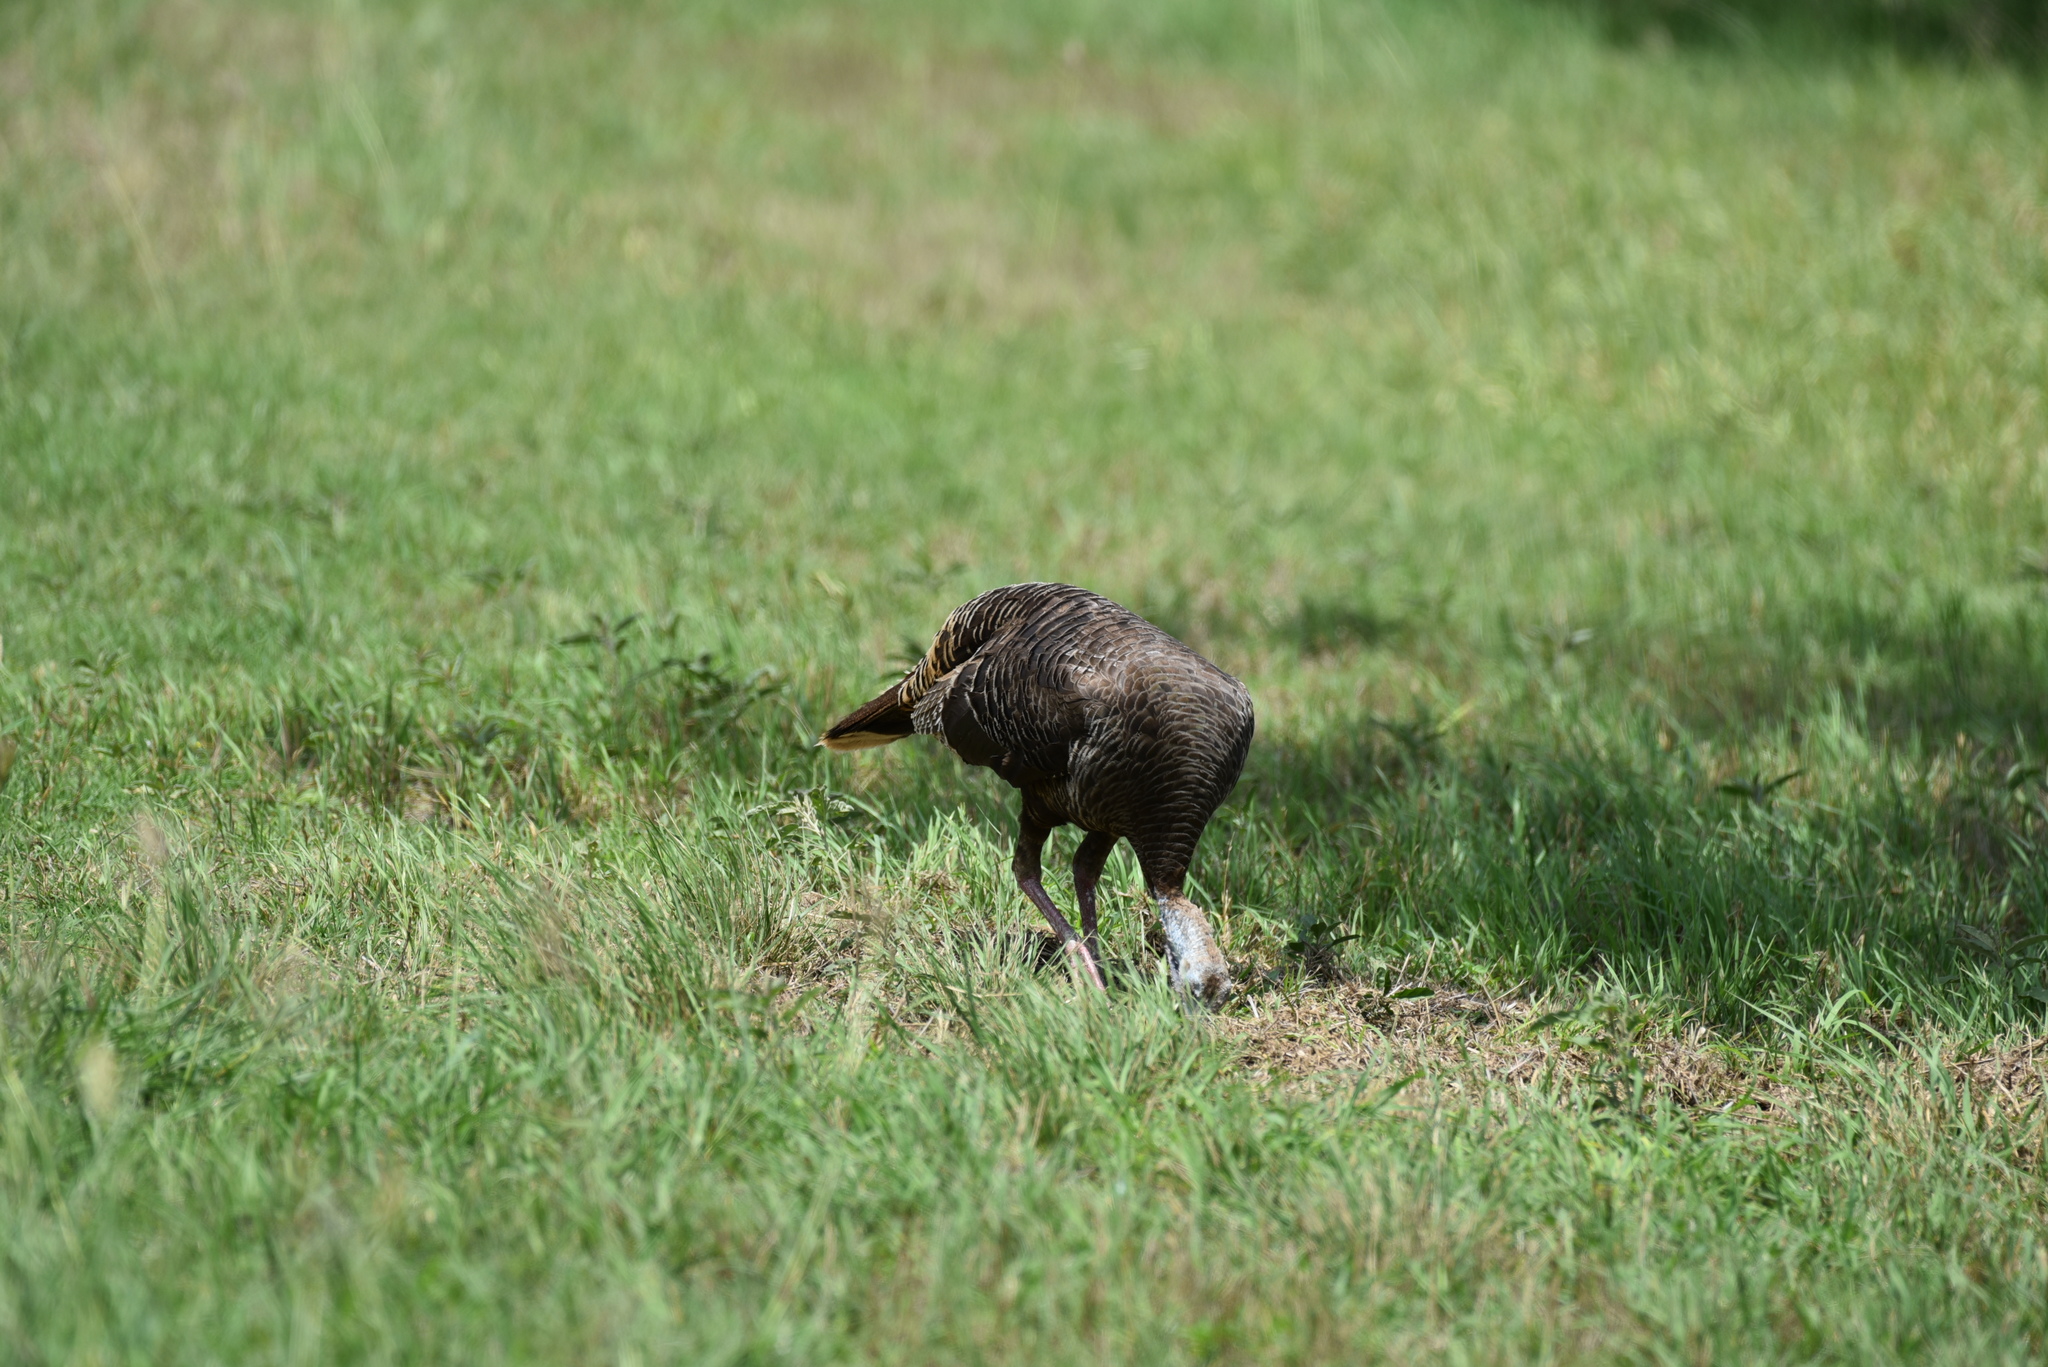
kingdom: Animalia
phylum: Chordata
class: Aves
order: Galliformes
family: Phasianidae
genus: Meleagris
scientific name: Meleagris gallopavo
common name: Wild turkey
